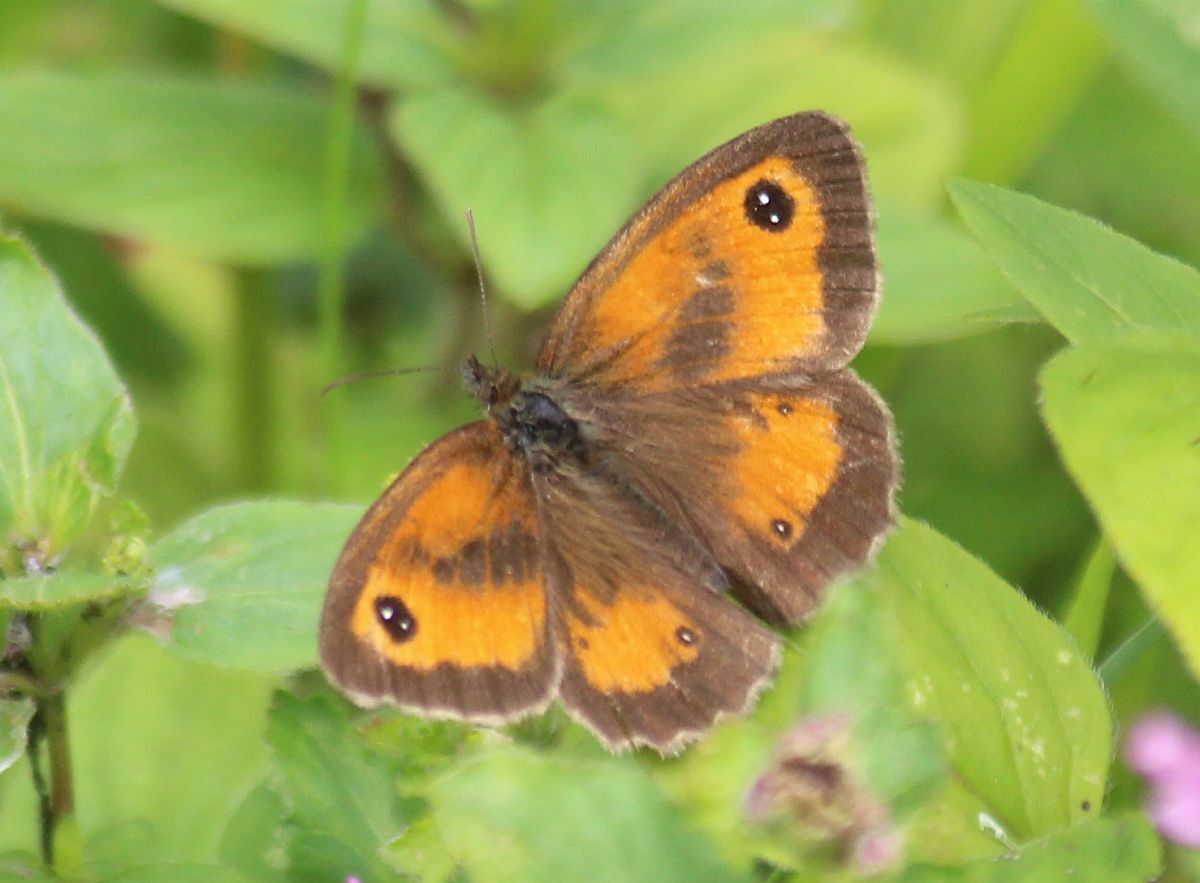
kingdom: Animalia
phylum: Arthropoda
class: Insecta
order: Lepidoptera
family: Nymphalidae
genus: Pyronia
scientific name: Pyronia tithonus
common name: Gatekeeper
